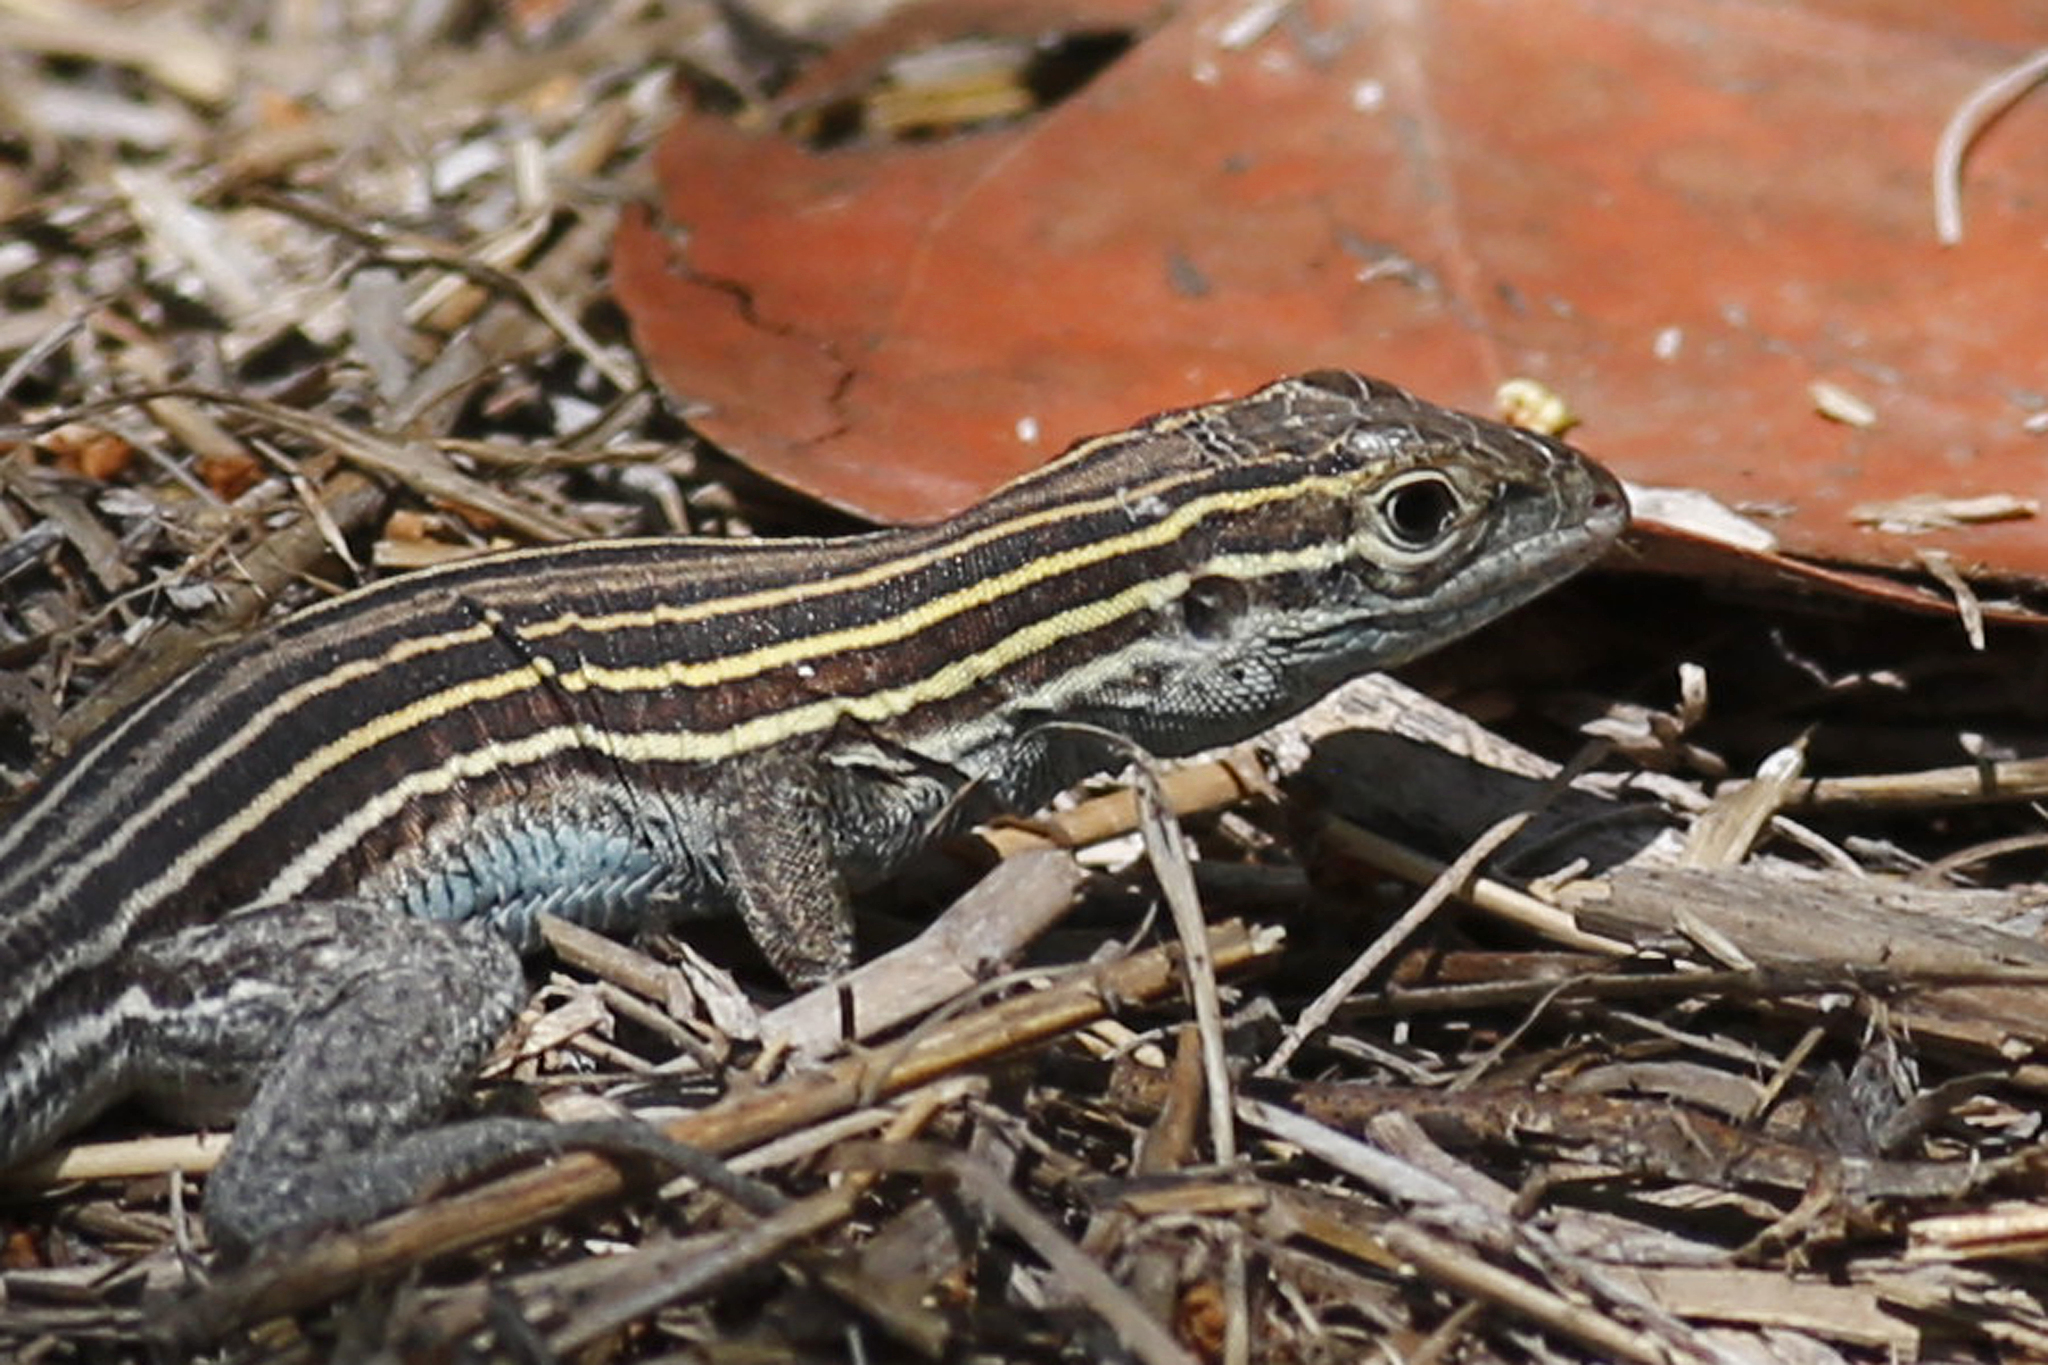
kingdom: Animalia
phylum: Chordata
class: Squamata
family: Teiidae
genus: Aspidoscelis
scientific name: Aspidoscelis sexlineatus
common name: Six-lined racerunner
